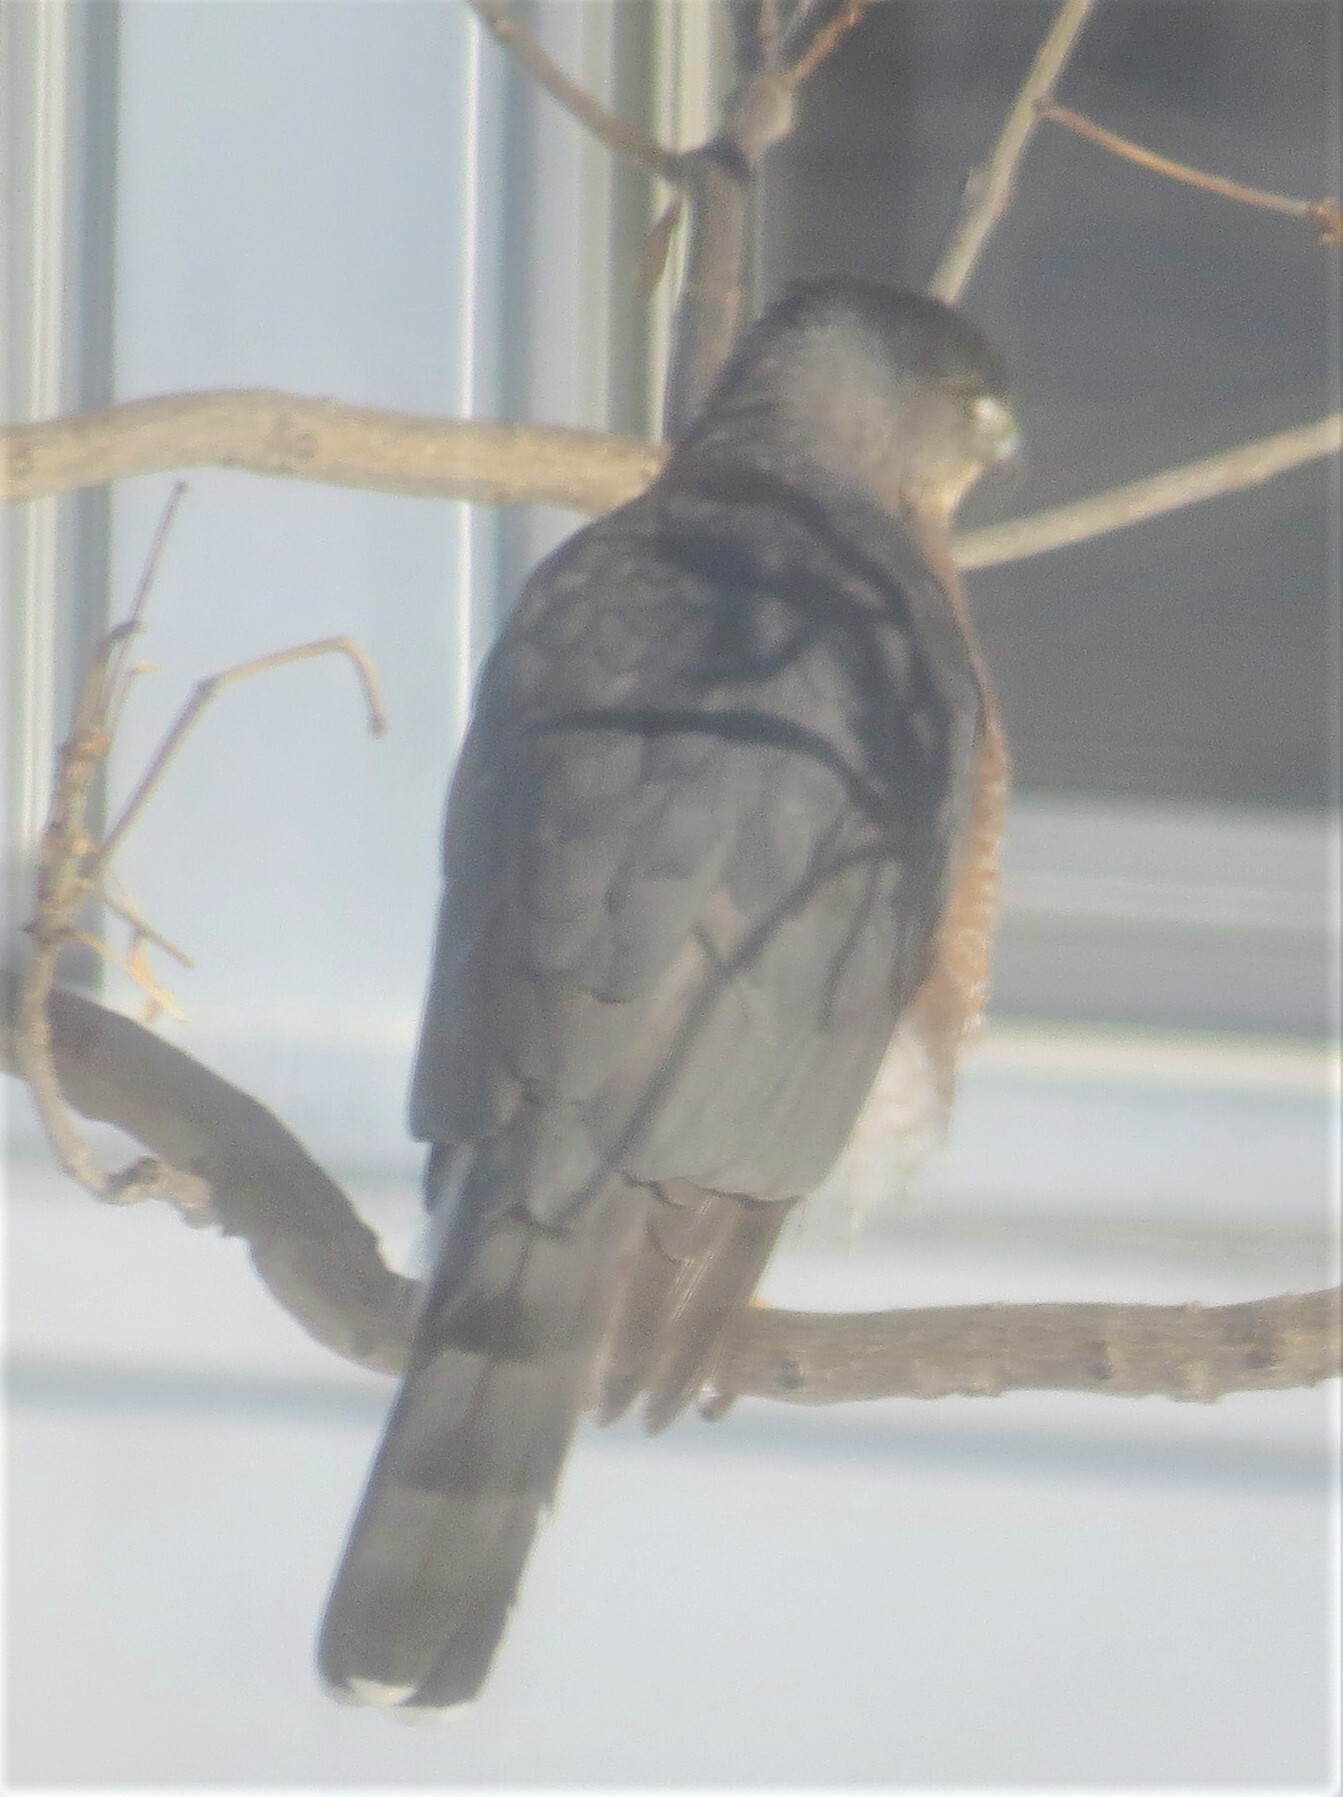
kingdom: Animalia
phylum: Chordata
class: Aves
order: Accipitriformes
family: Accipitridae
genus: Accipiter
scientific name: Accipiter cooperii
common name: Cooper's hawk
